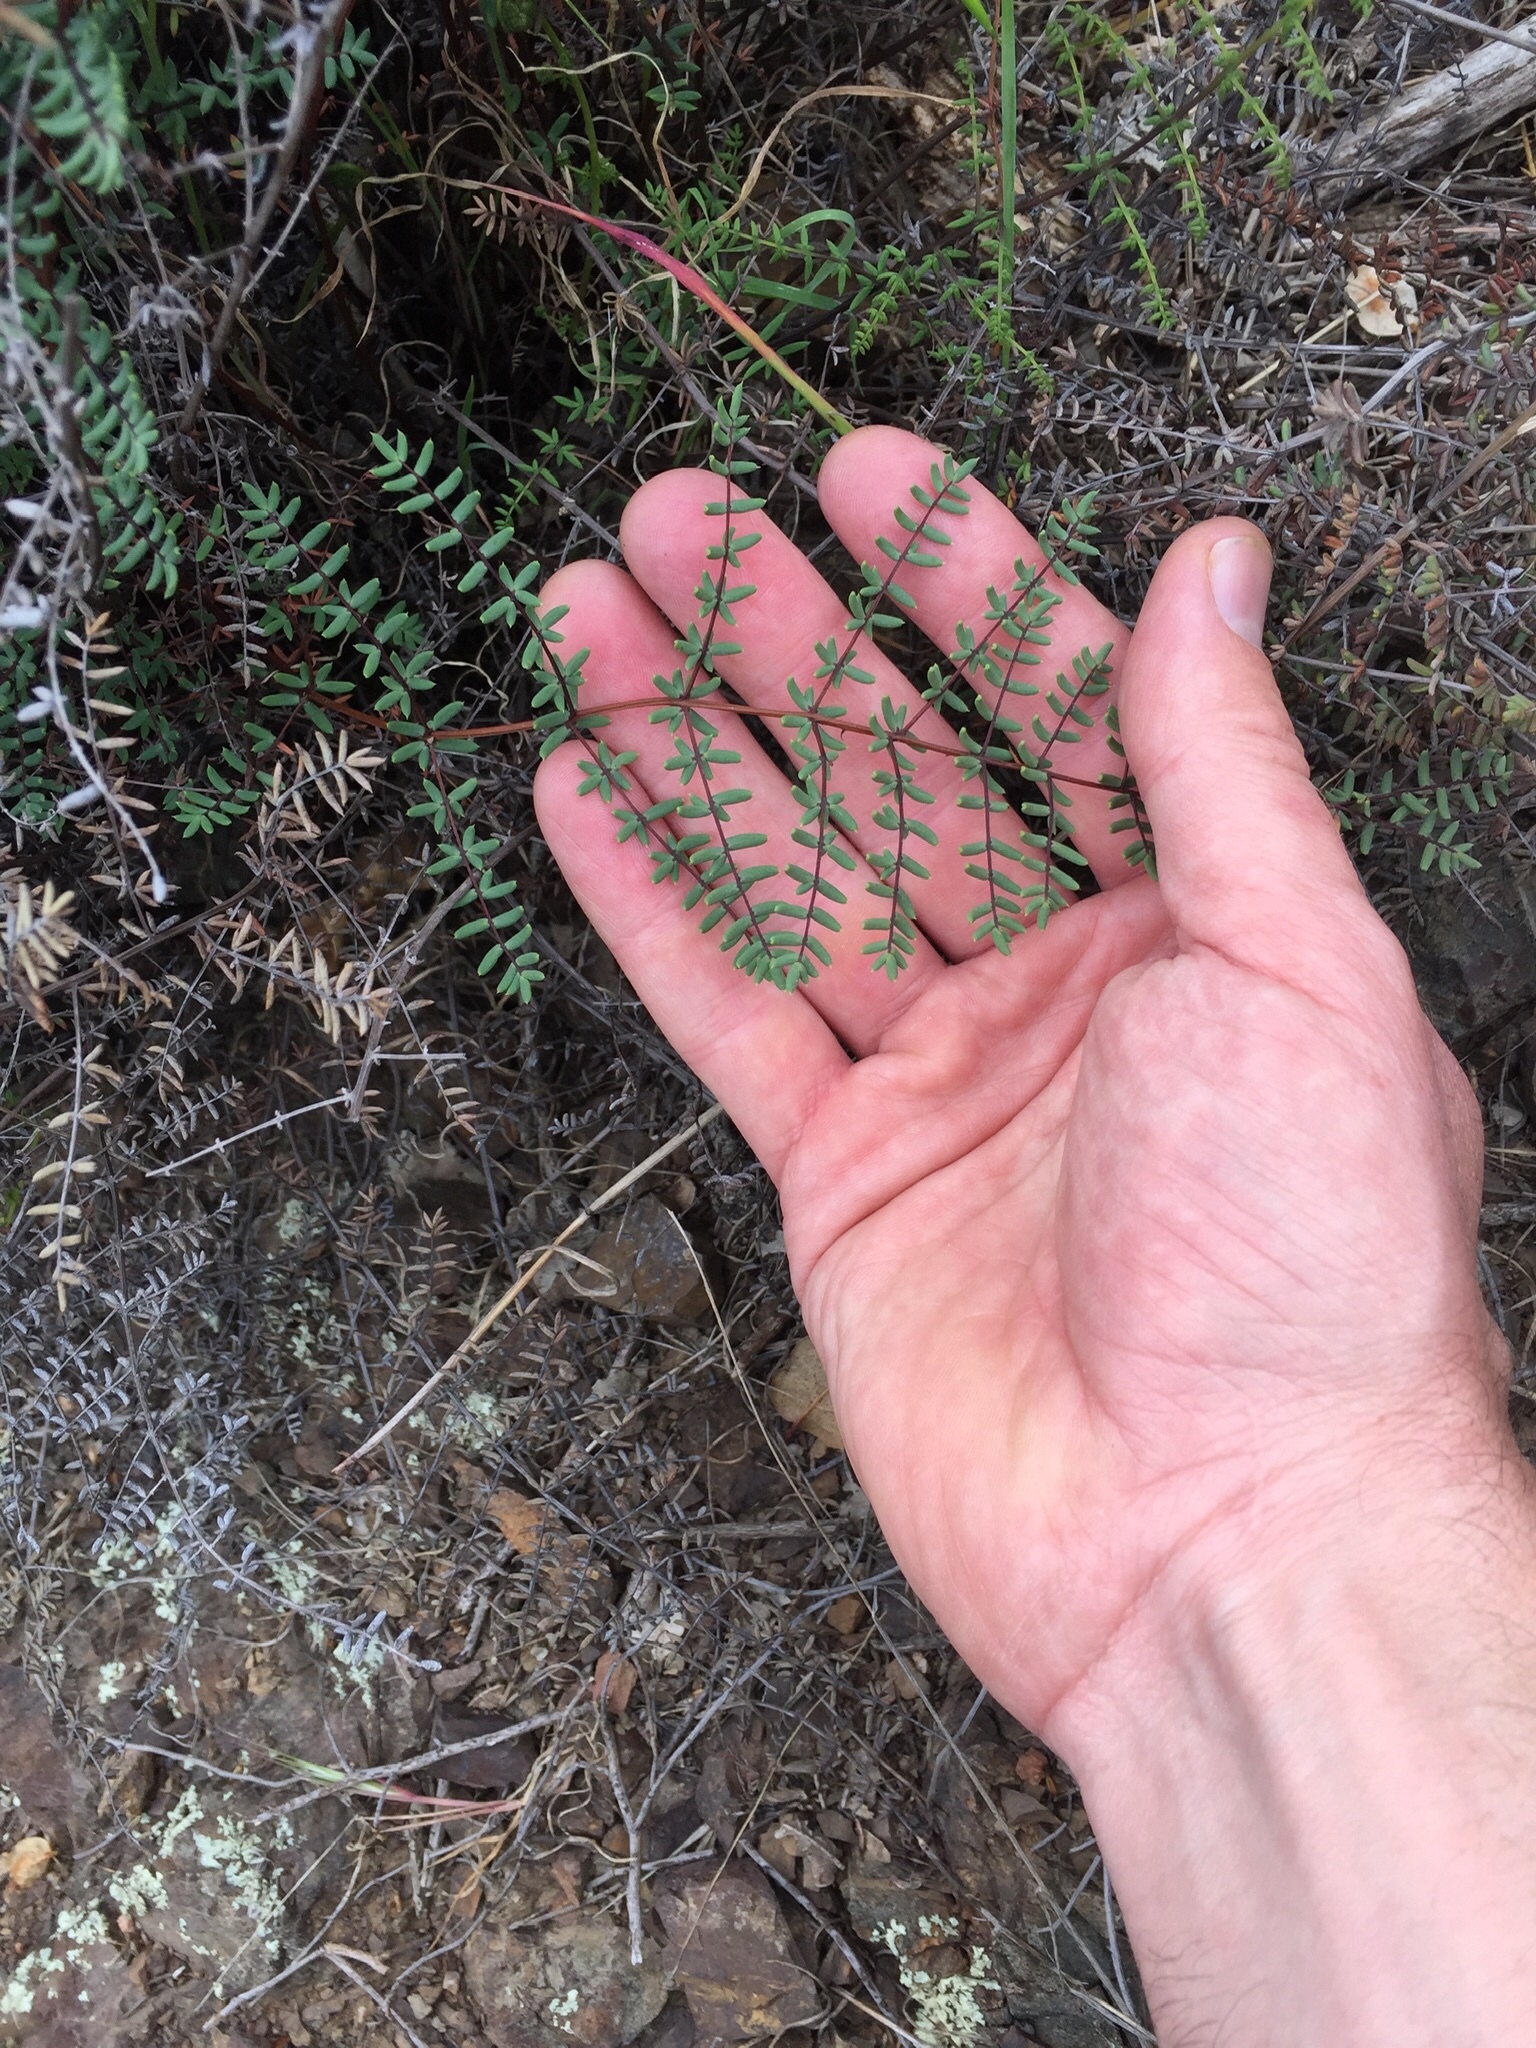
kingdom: Plantae
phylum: Tracheophyta
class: Polypodiopsida
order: Polypodiales
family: Pteridaceae
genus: Pellaea
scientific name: Pellaea mucronata
